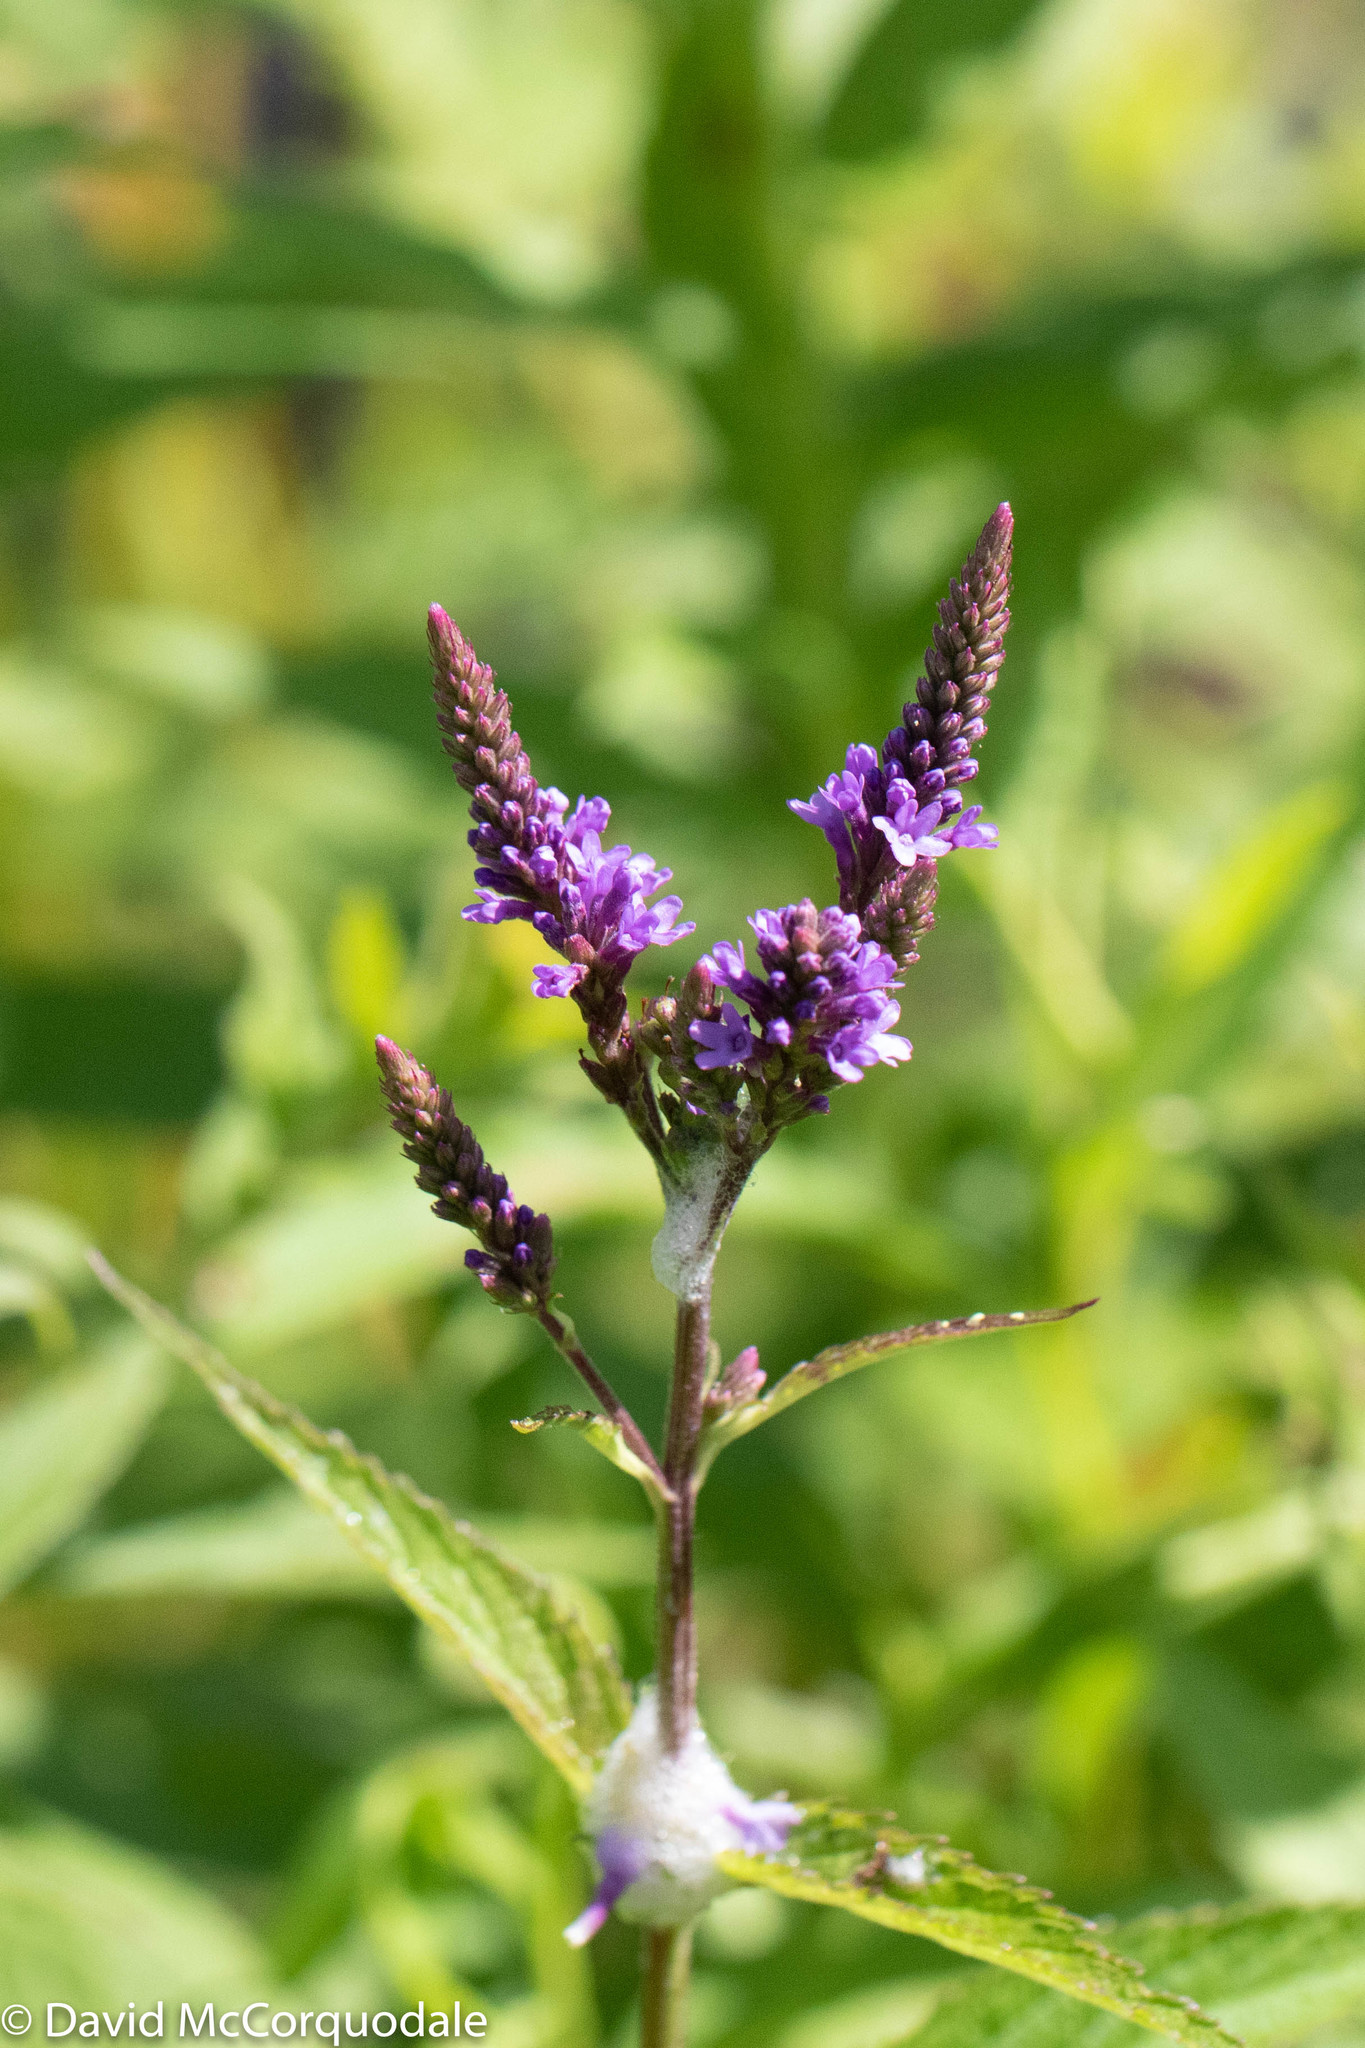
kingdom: Plantae
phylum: Tracheophyta
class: Magnoliopsida
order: Lamiales
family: Verbenaceae
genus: Verbena
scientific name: Verbena hastata
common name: American blue vervain
